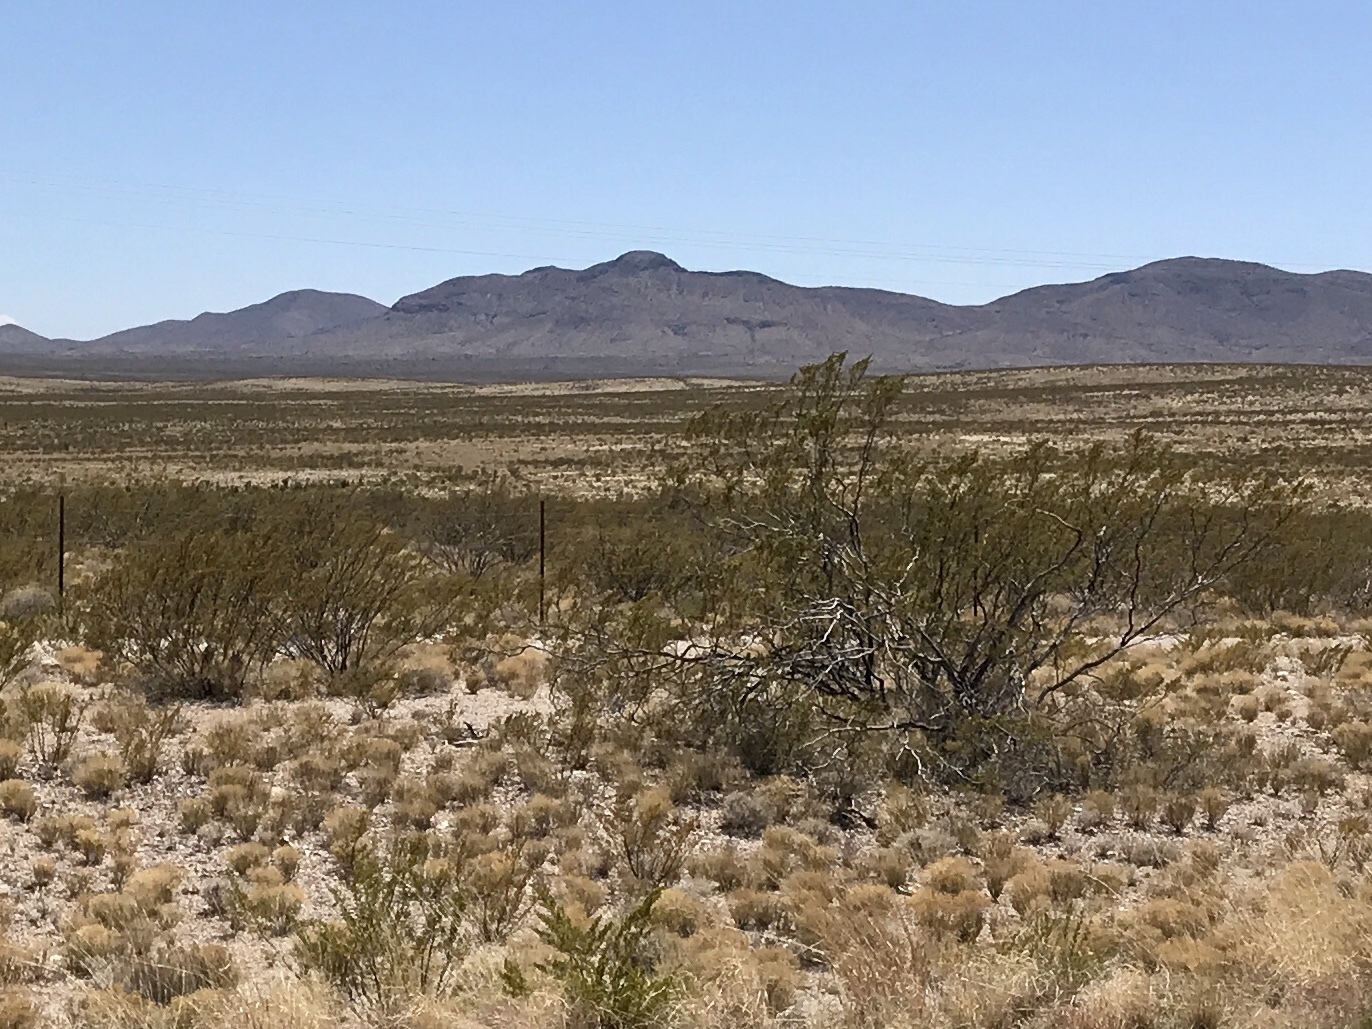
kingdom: Plantae
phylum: Tracheophyta
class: Magnoliopsida
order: Zygophyllales
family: Zygophyllaceae
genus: Larrea
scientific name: Larrea tridentata
